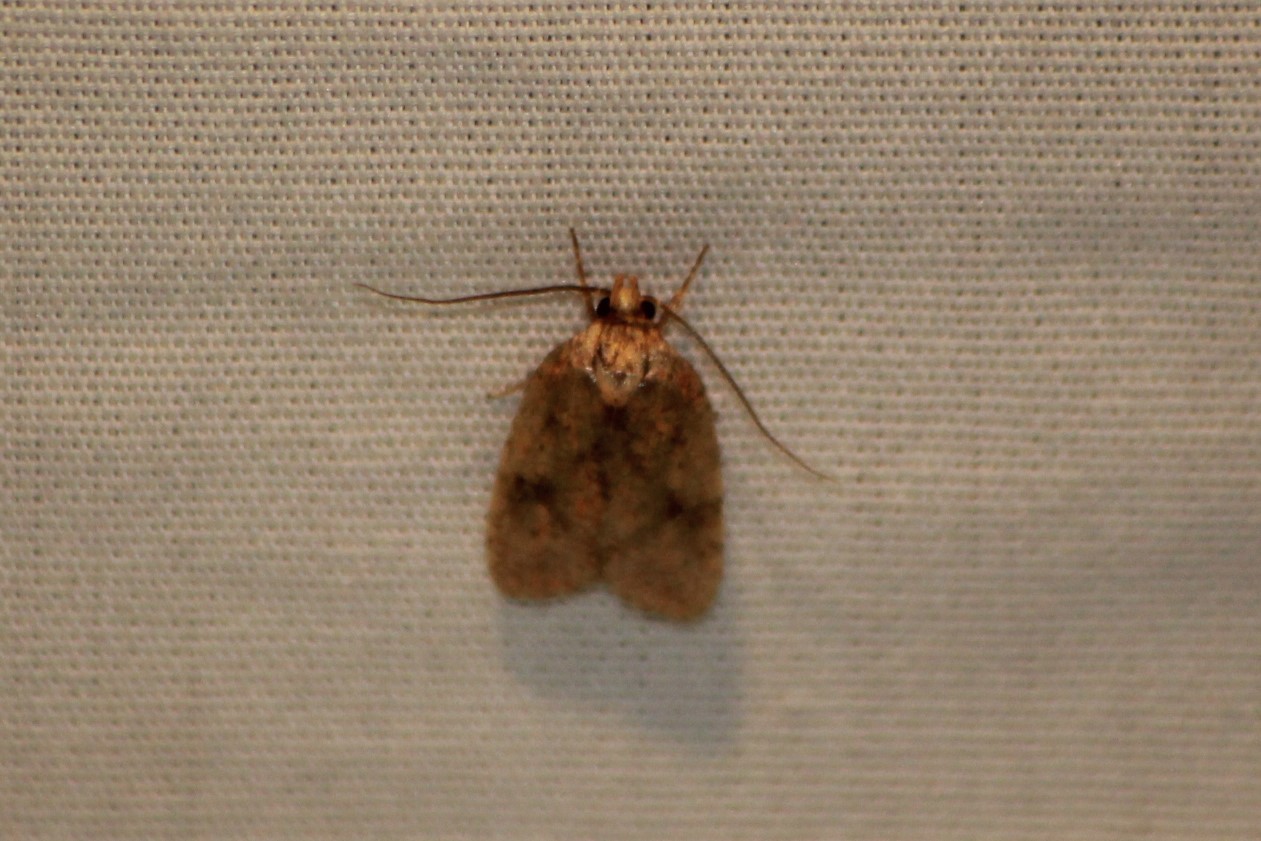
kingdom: Animalia
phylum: Arthropoda
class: Insecta
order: Lepidoptera
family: Depressariidae
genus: Agonopterix
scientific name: Agonopterix robiniella
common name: Four-dotted agonopterix moth
